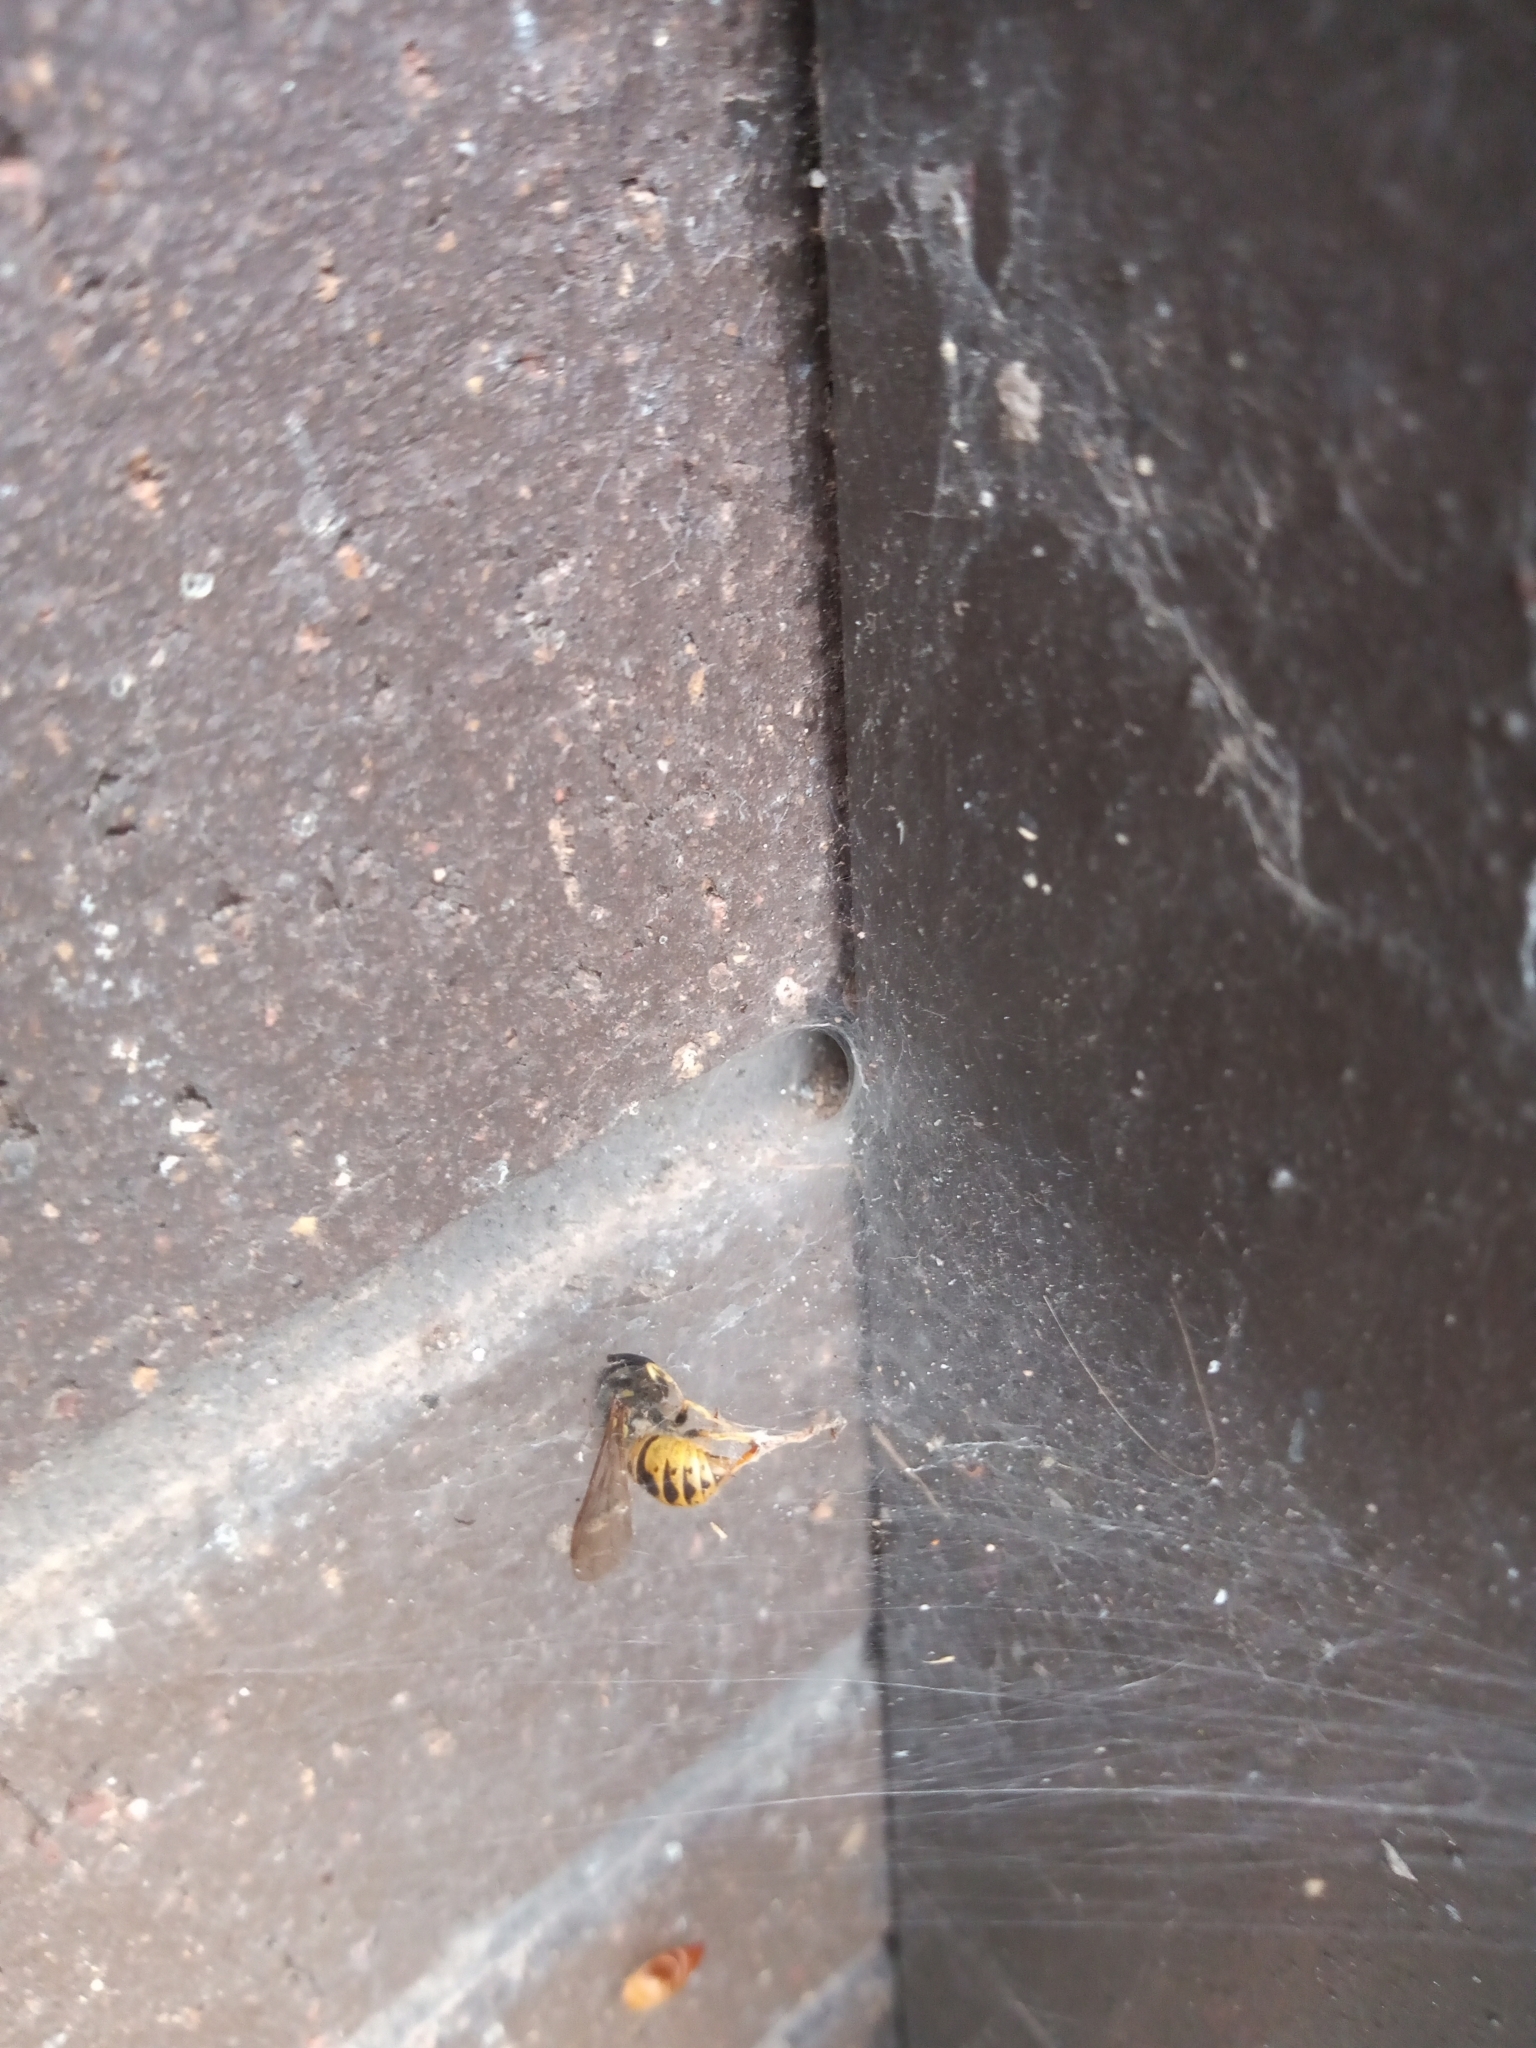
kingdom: Animalia
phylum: Arthropoda
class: Insecta
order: Hymenoptera
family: Vespidae
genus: Vespula
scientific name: Vespula vulgaris
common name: Common wasp
